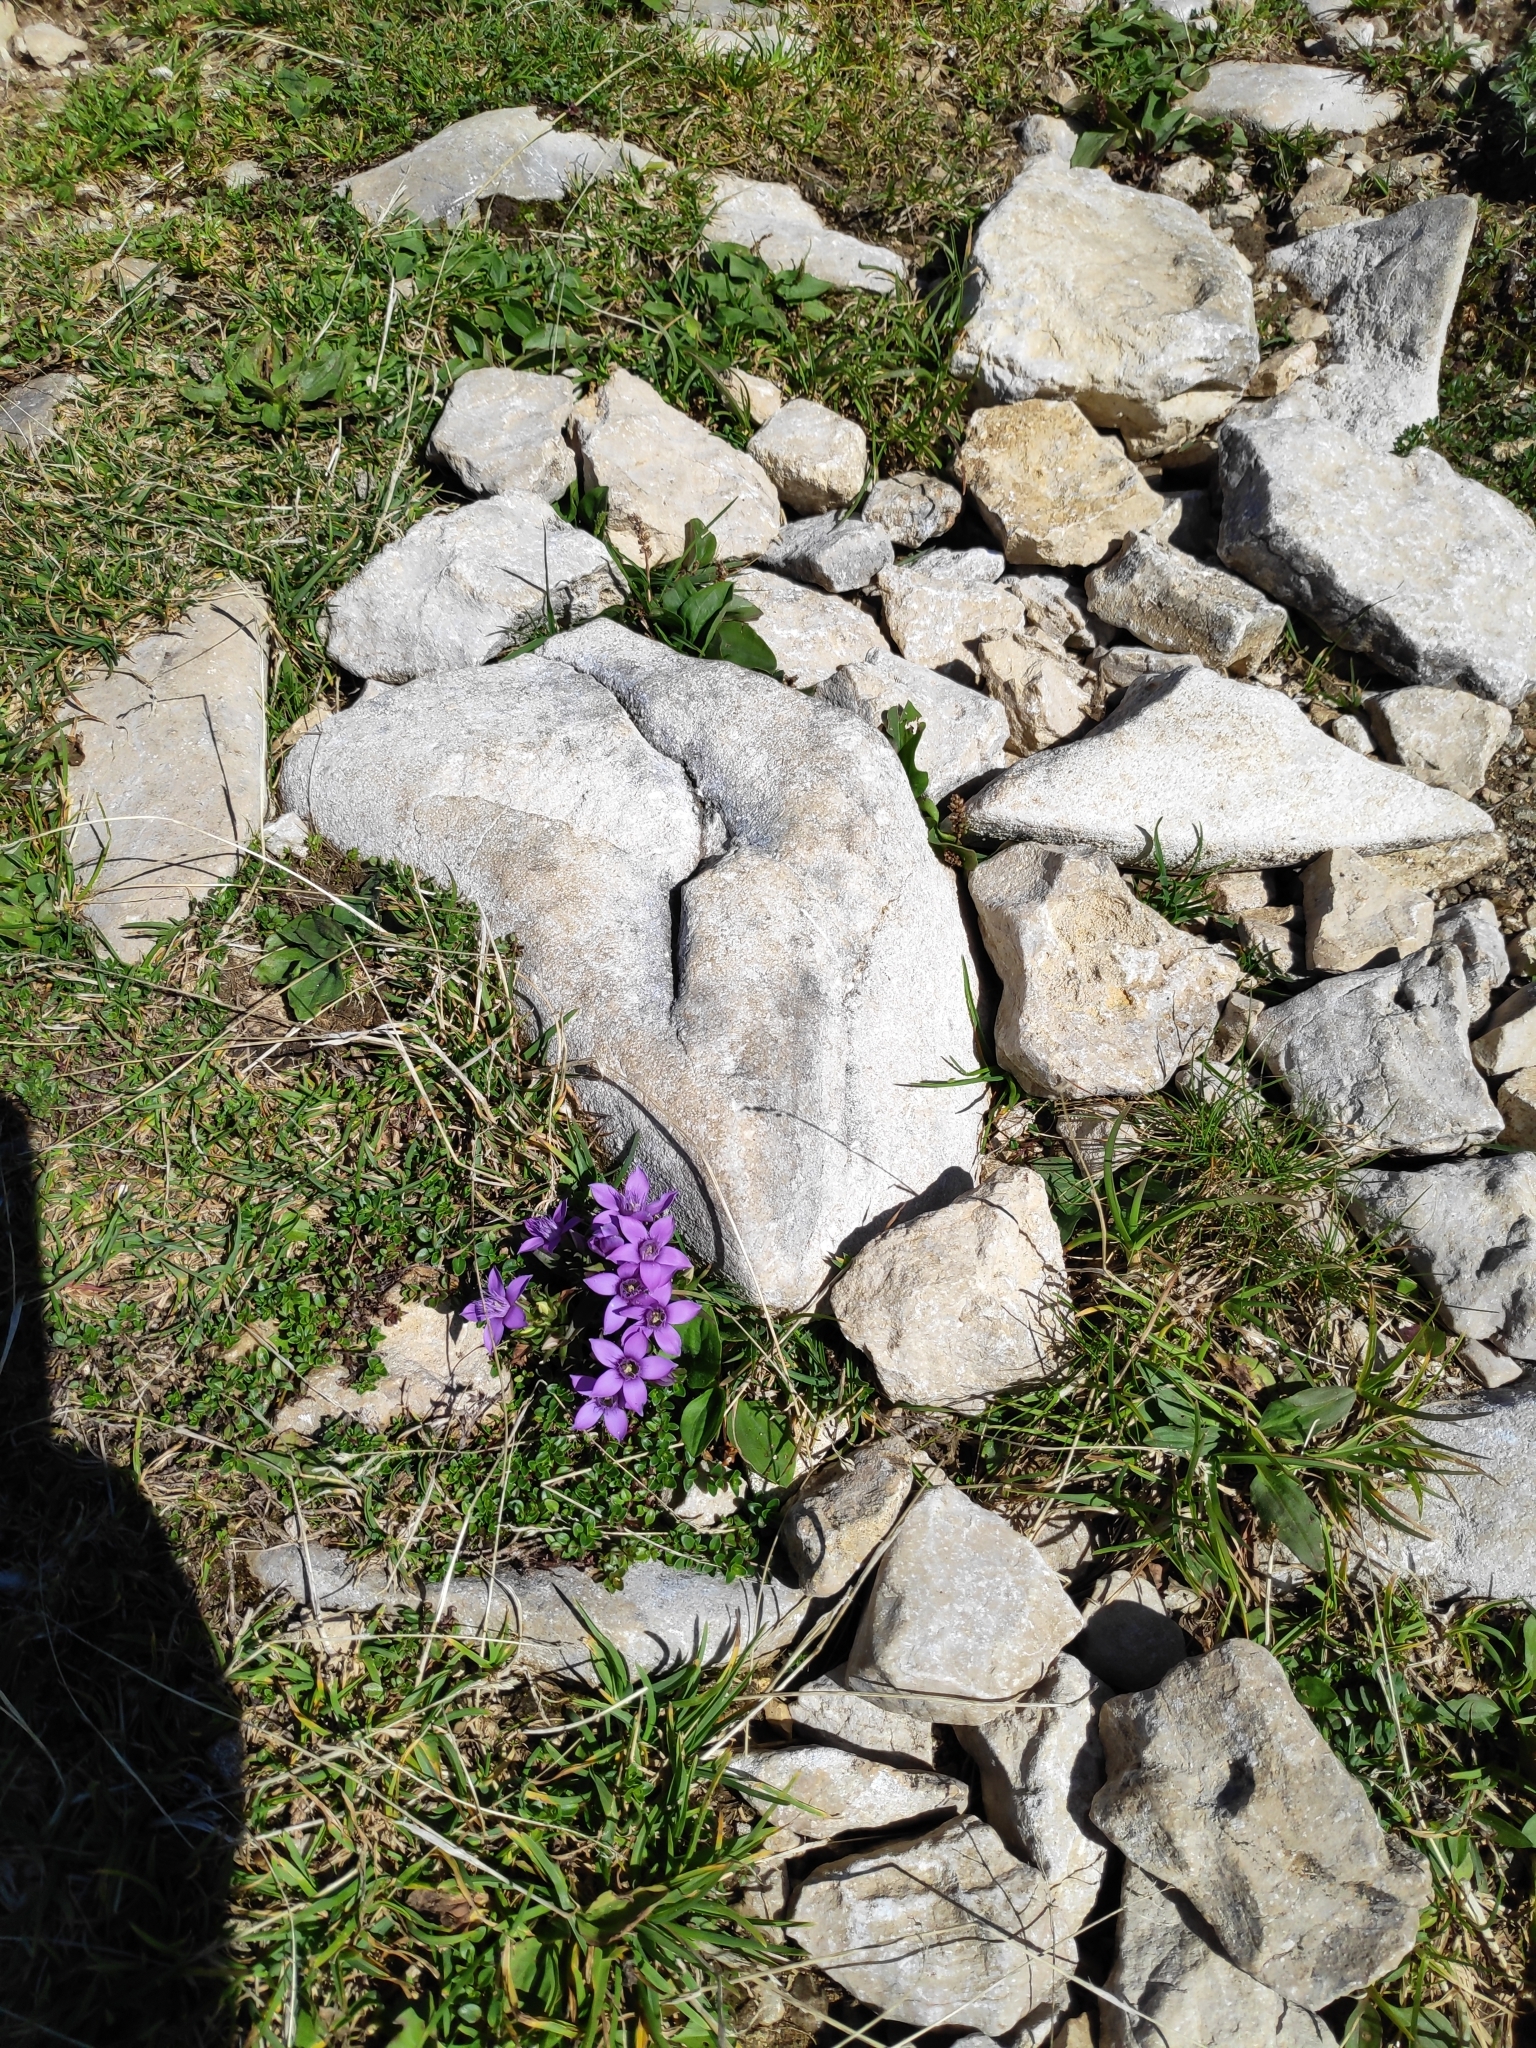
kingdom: Plantae
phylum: Tracheophyta
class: Magnoliopsida
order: Gentianales
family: Gentianaceae
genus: Gentianella
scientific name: Gentianella anisodonta
